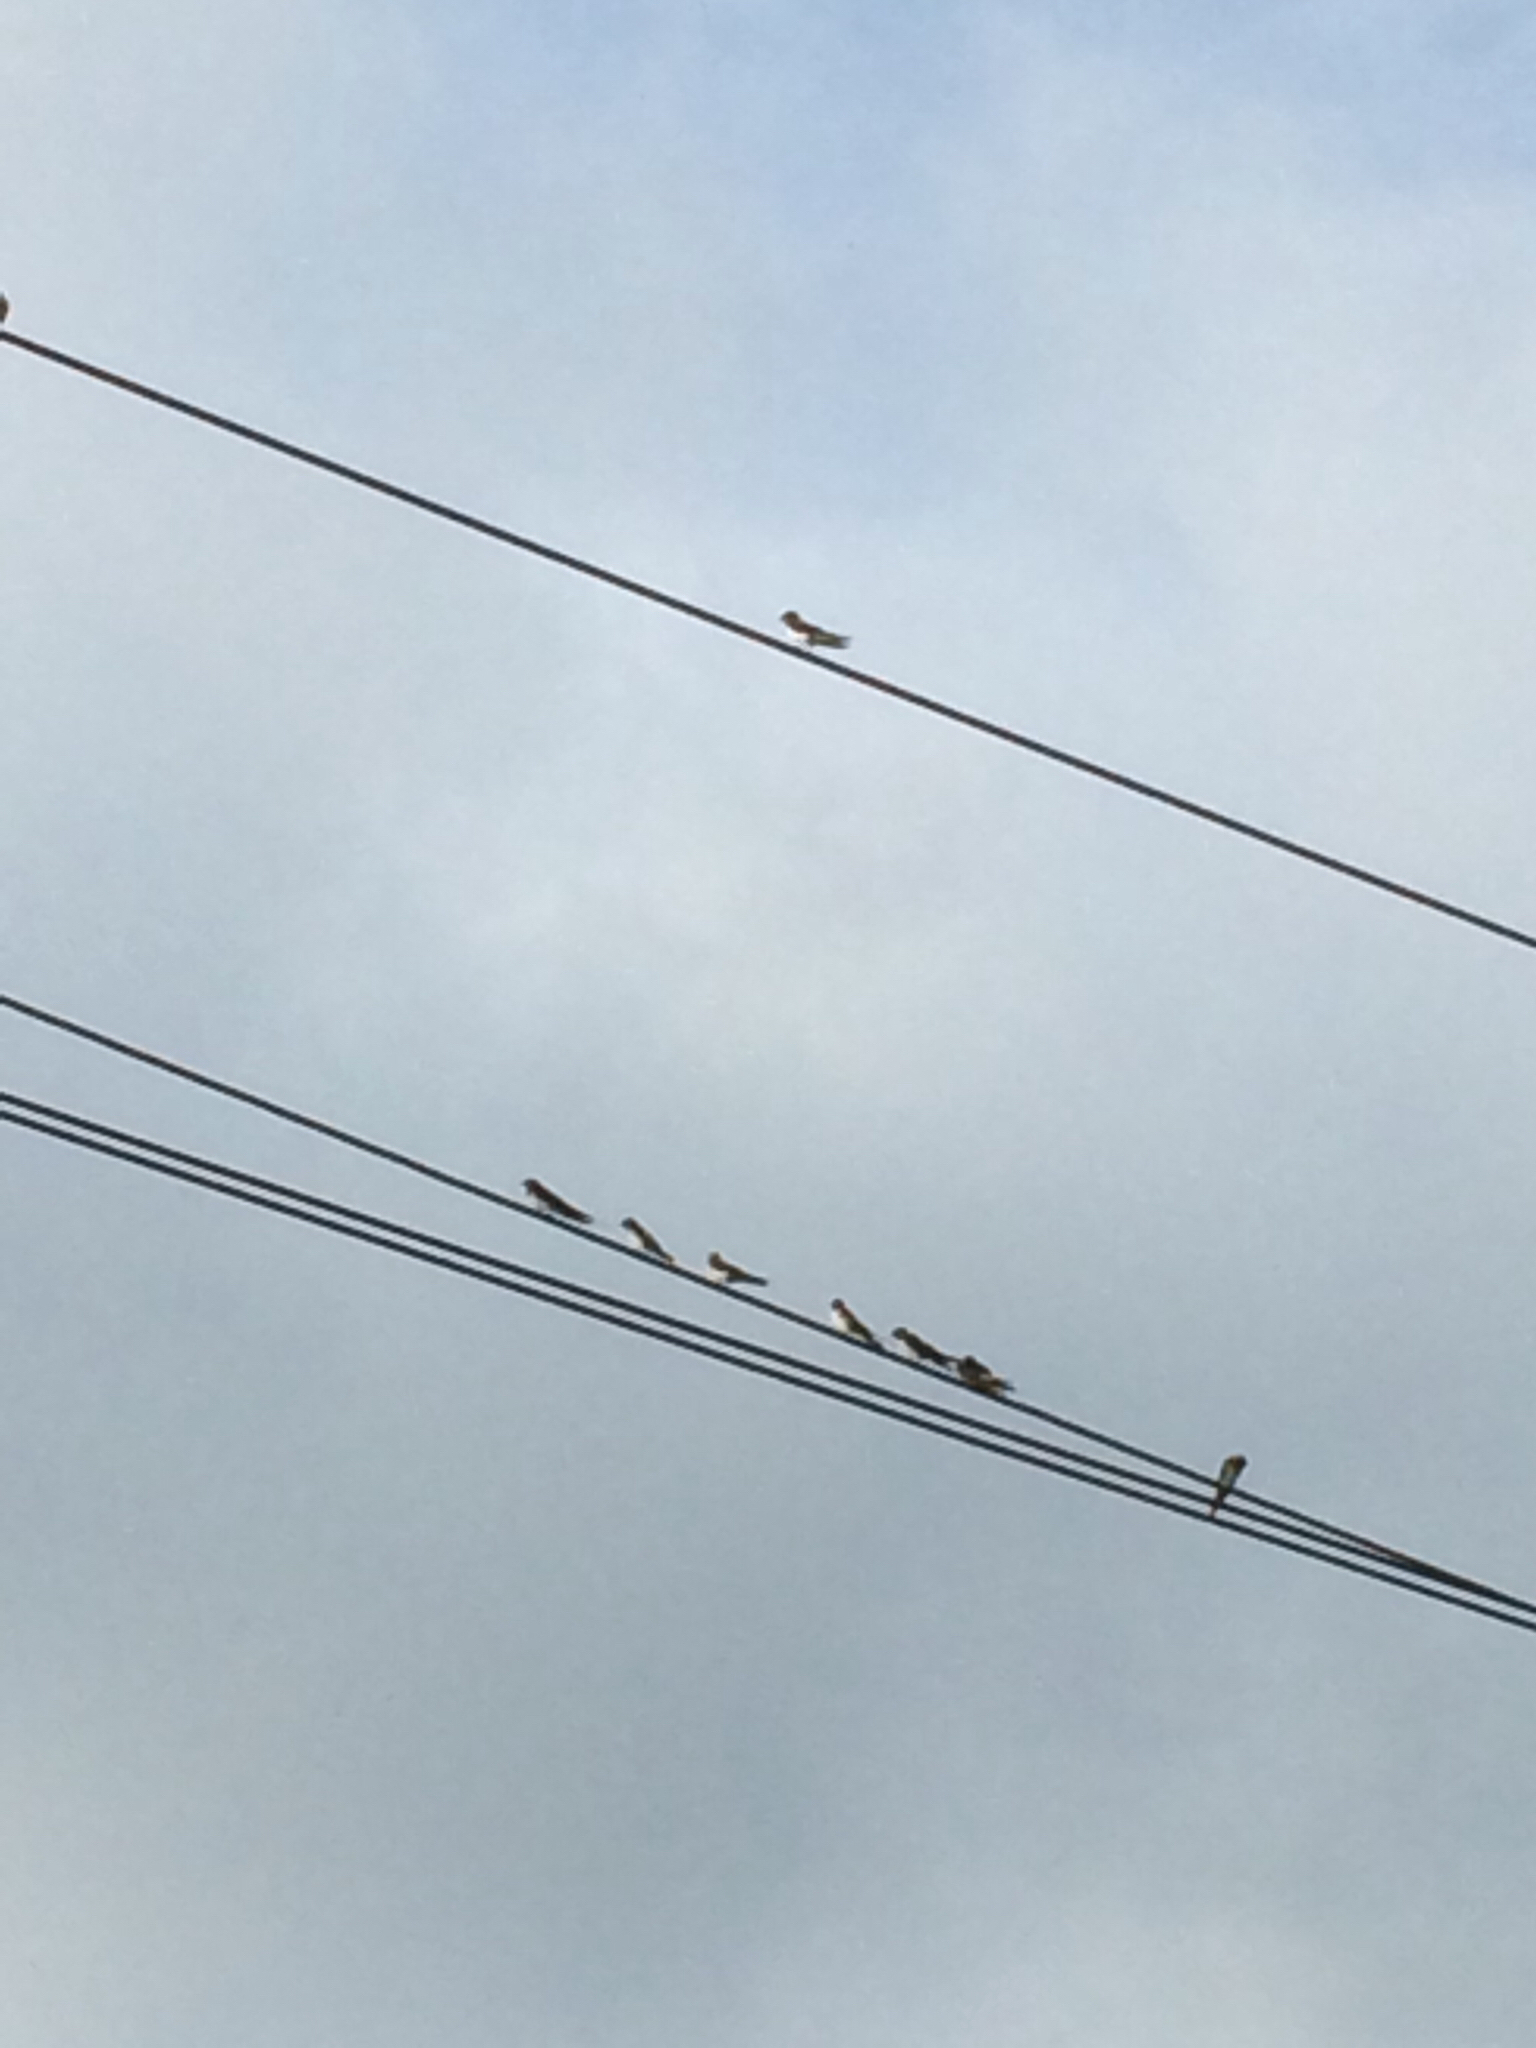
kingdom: Animalia
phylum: Chordata
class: Aves
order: Passeriformes
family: Hirundinidae
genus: Hirundo
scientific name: Hirundo rustica
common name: Barn swallow
